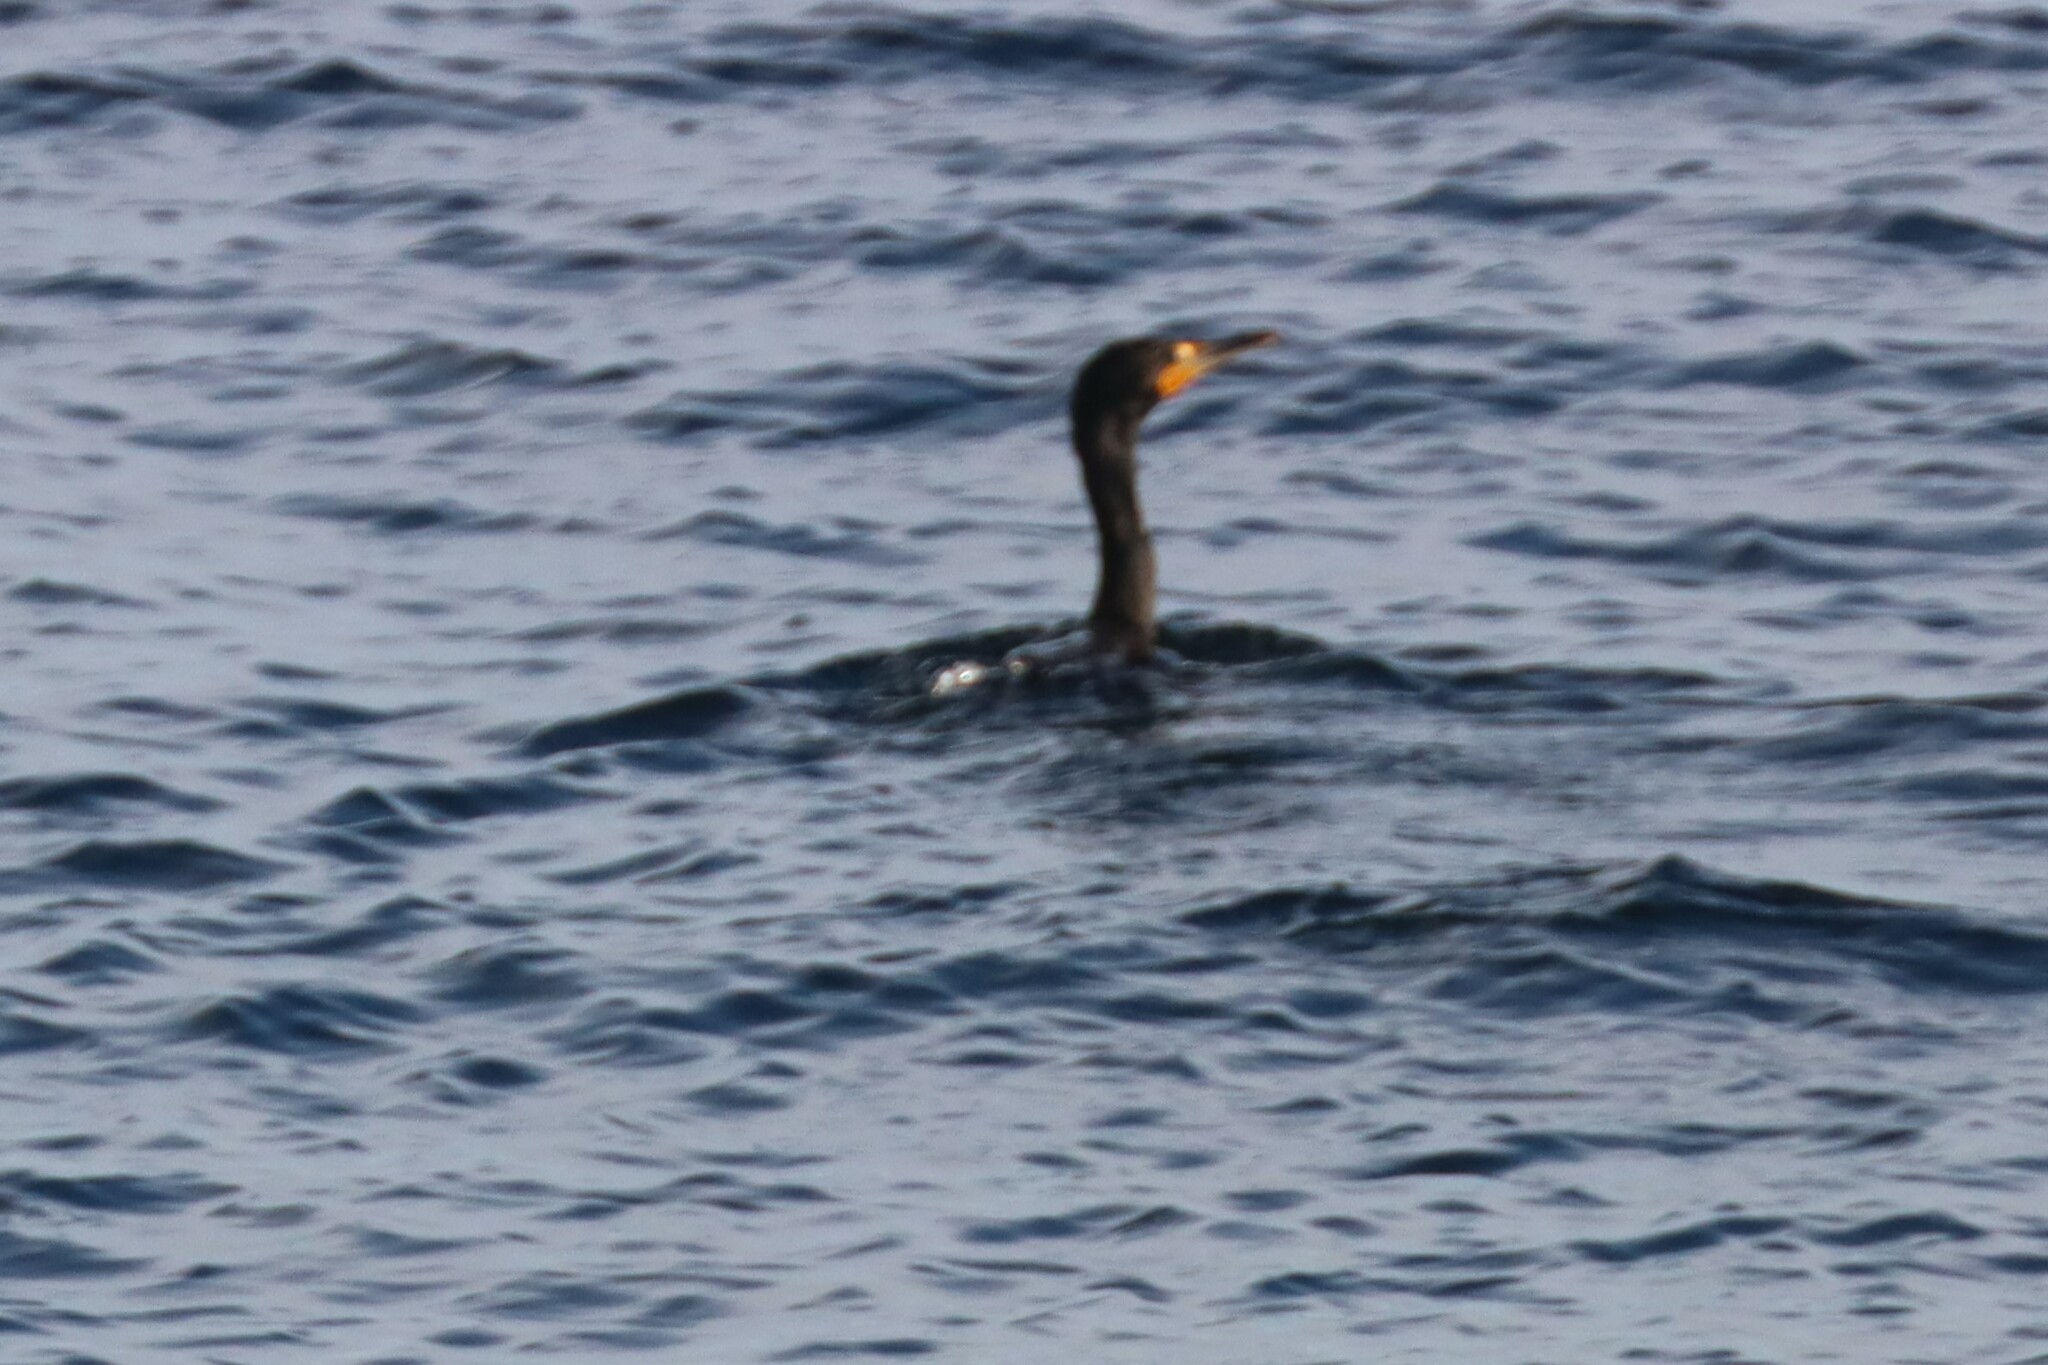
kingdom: Animalia
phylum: Chordata
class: Aves
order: Suliformes
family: Phalacrocoracidae
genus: Phalacrocorax
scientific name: Phalacrocorax auritus
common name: Double-crested cormorant
